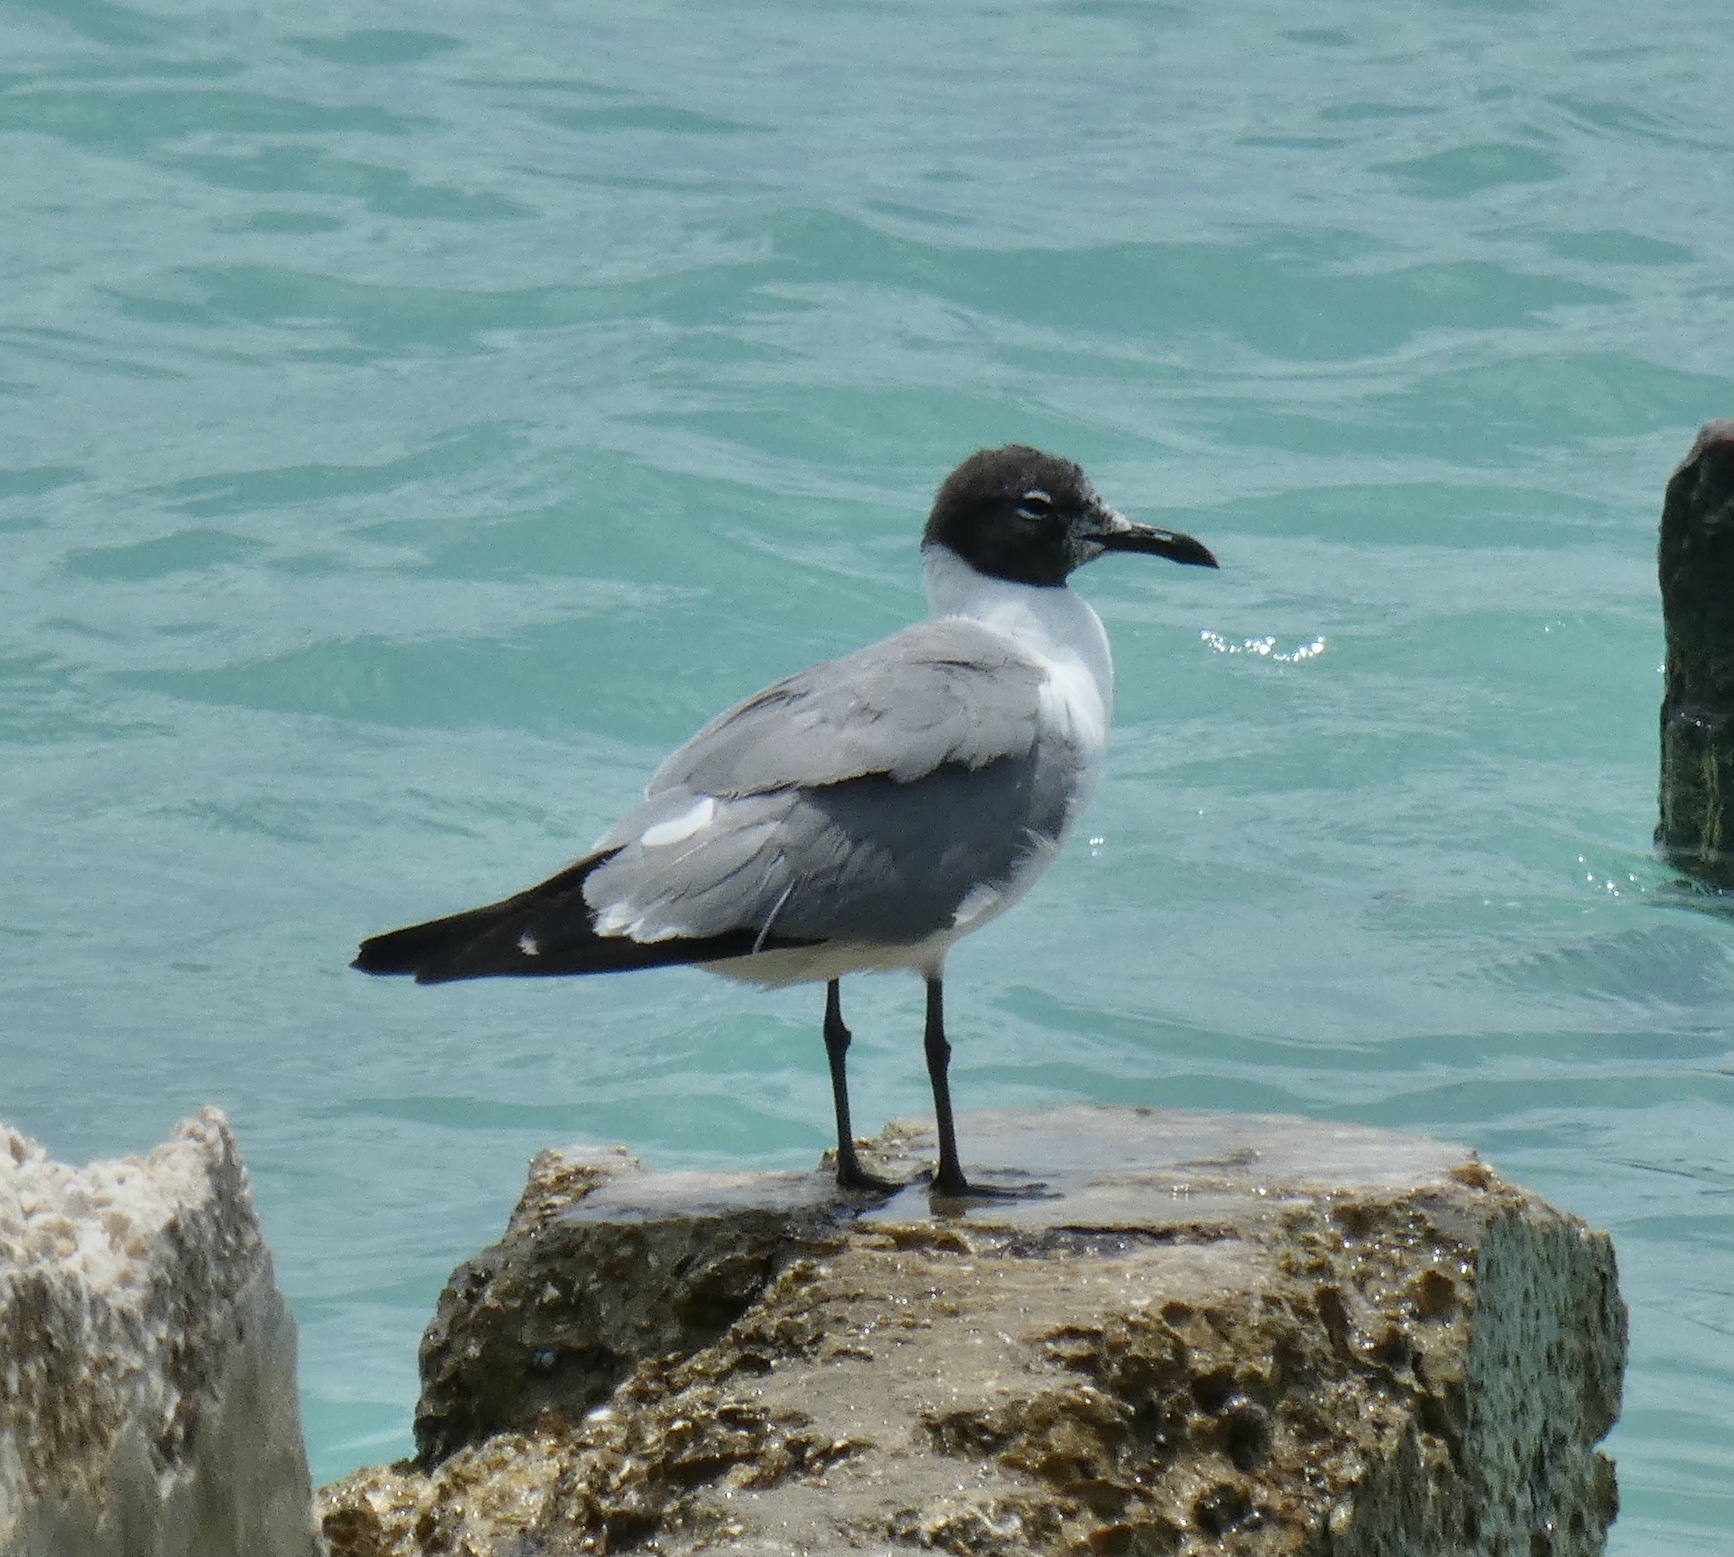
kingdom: Animalia
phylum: Chordata
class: Aves
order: Charadriiformes
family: Laridae
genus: Leucophaeus
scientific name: Leucophaeus atricilla
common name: Laughing gull
